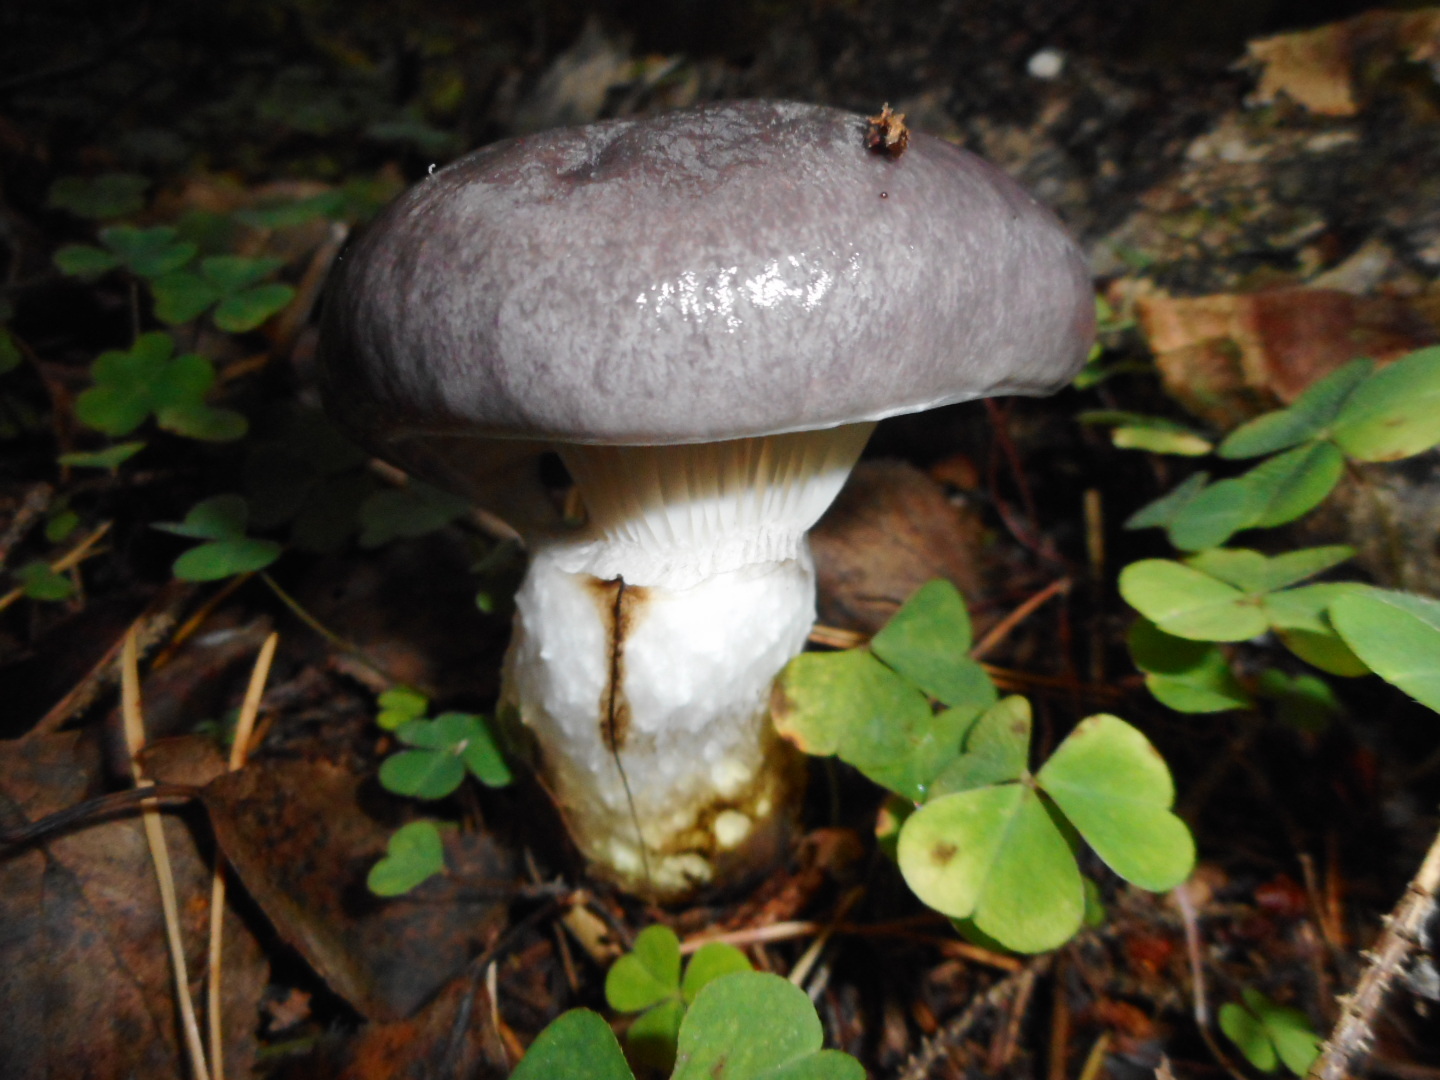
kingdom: Fungi
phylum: Basidiomycota
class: Agaricomycetes
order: Boletales
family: Gomphidiaceae
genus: Gomphidius
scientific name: Gomphidius glutinosus
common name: Slimy spike
